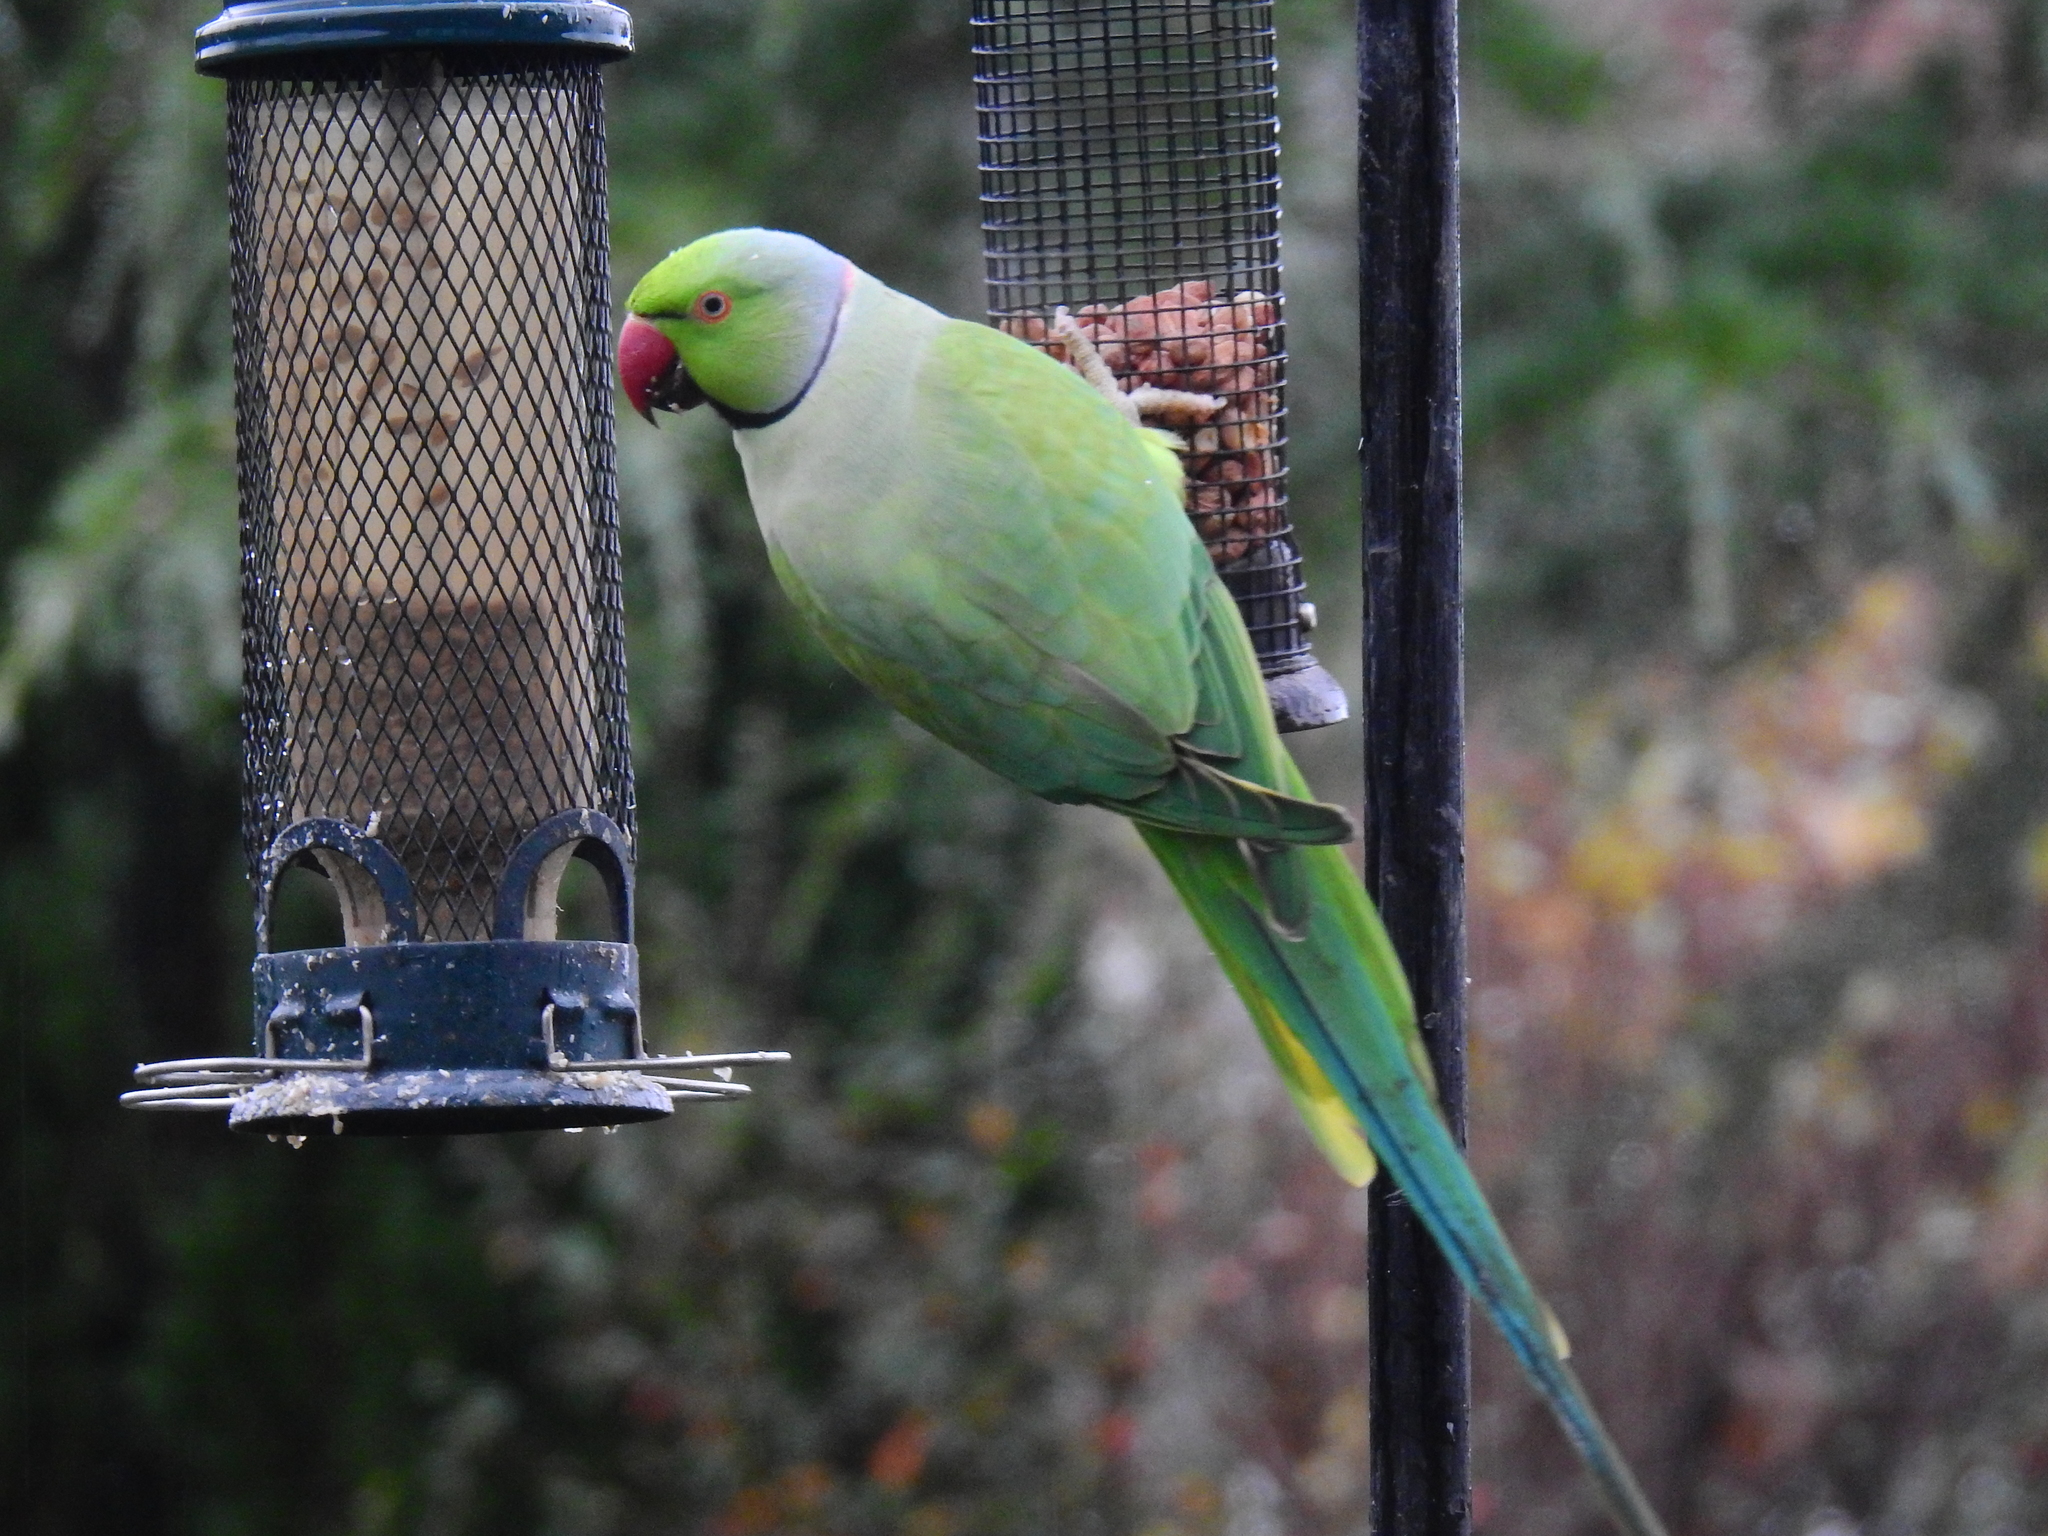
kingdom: Animalia
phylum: Chordata
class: Aves
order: Psittaciformes
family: Psittacidae
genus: Psittacula
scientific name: Psittacula krameri
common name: Rose-ringed parakeet
